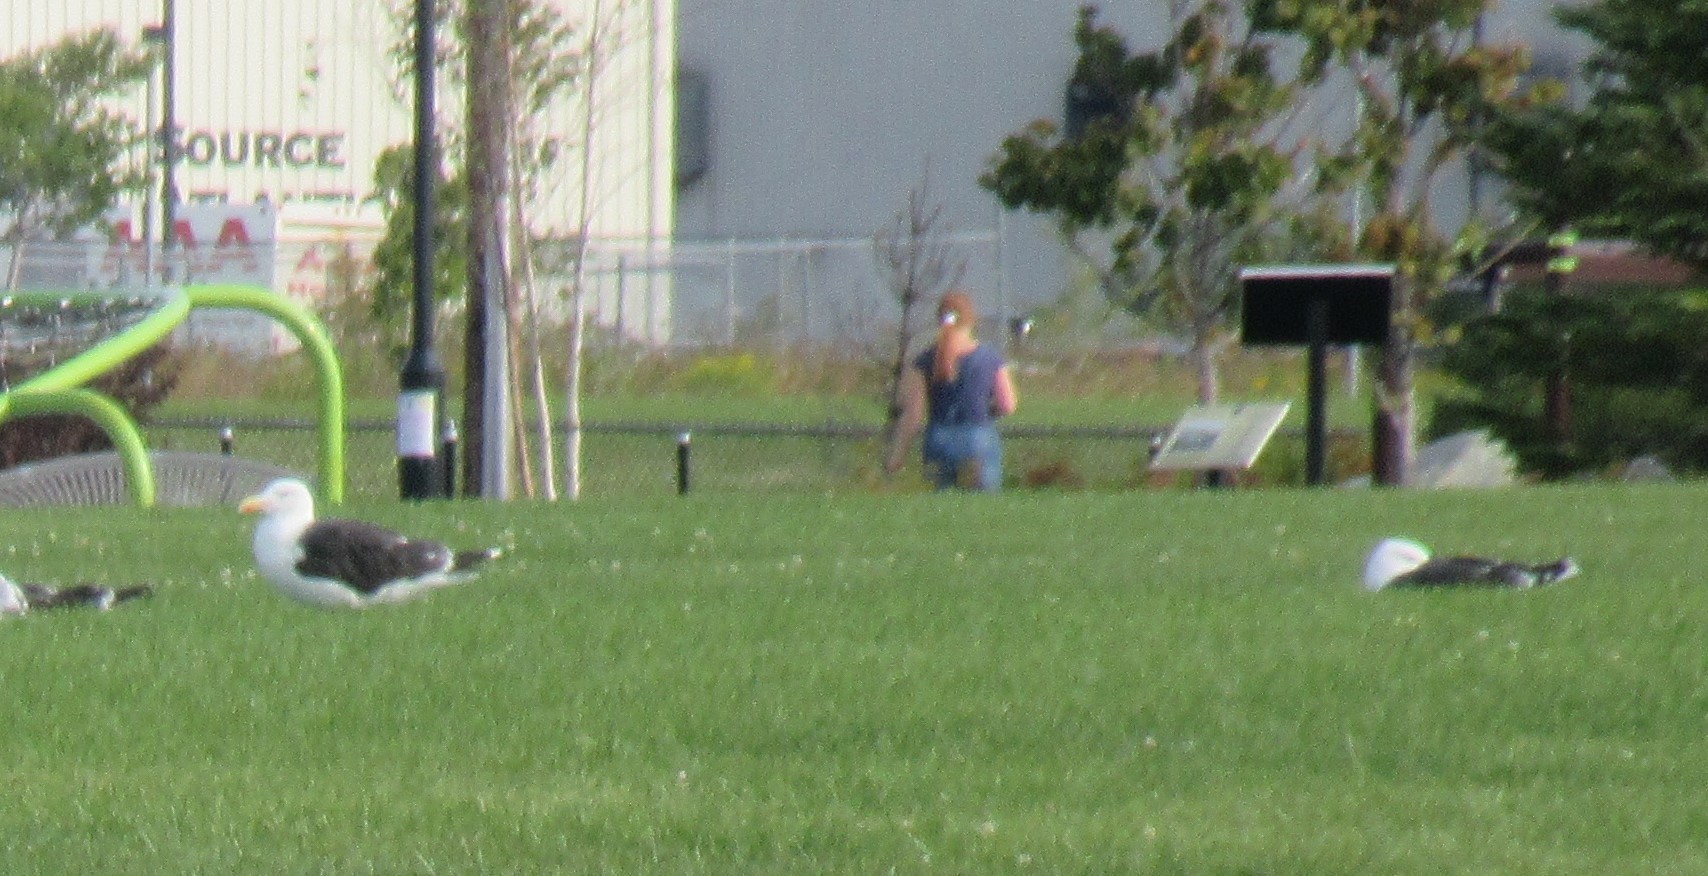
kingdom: Animalia
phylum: Chordata
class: Aves
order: Charadriiformes
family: Laridae
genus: Larus
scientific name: Larus marinus
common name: Great black-backed gull
